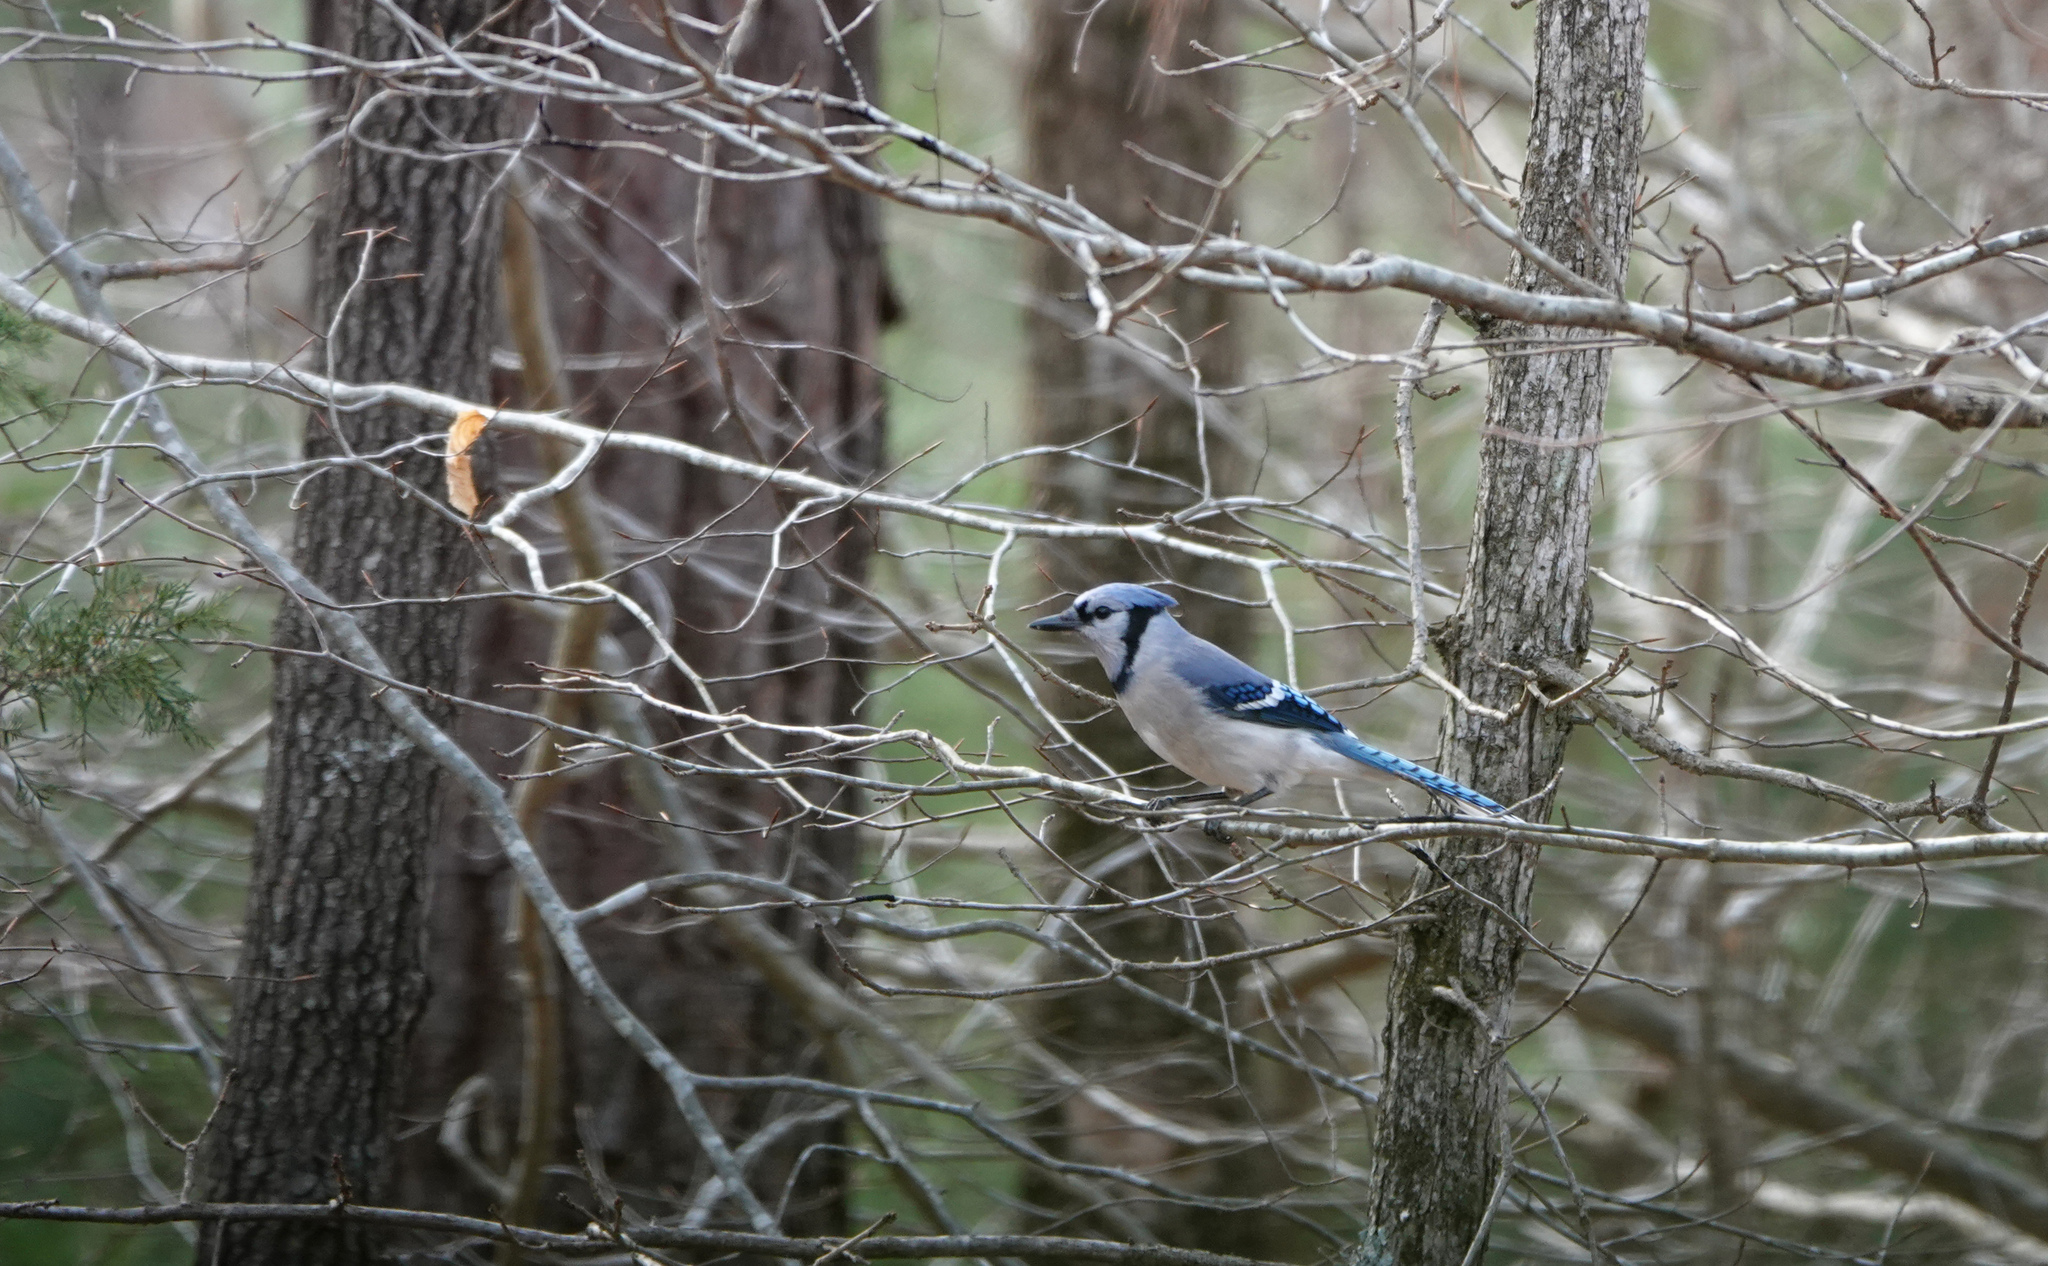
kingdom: Animalia
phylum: Chordata
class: Aves
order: Passeriformes
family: Corvidae
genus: Cyanocitta
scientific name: Cyanocitta cristata
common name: Blue jay
